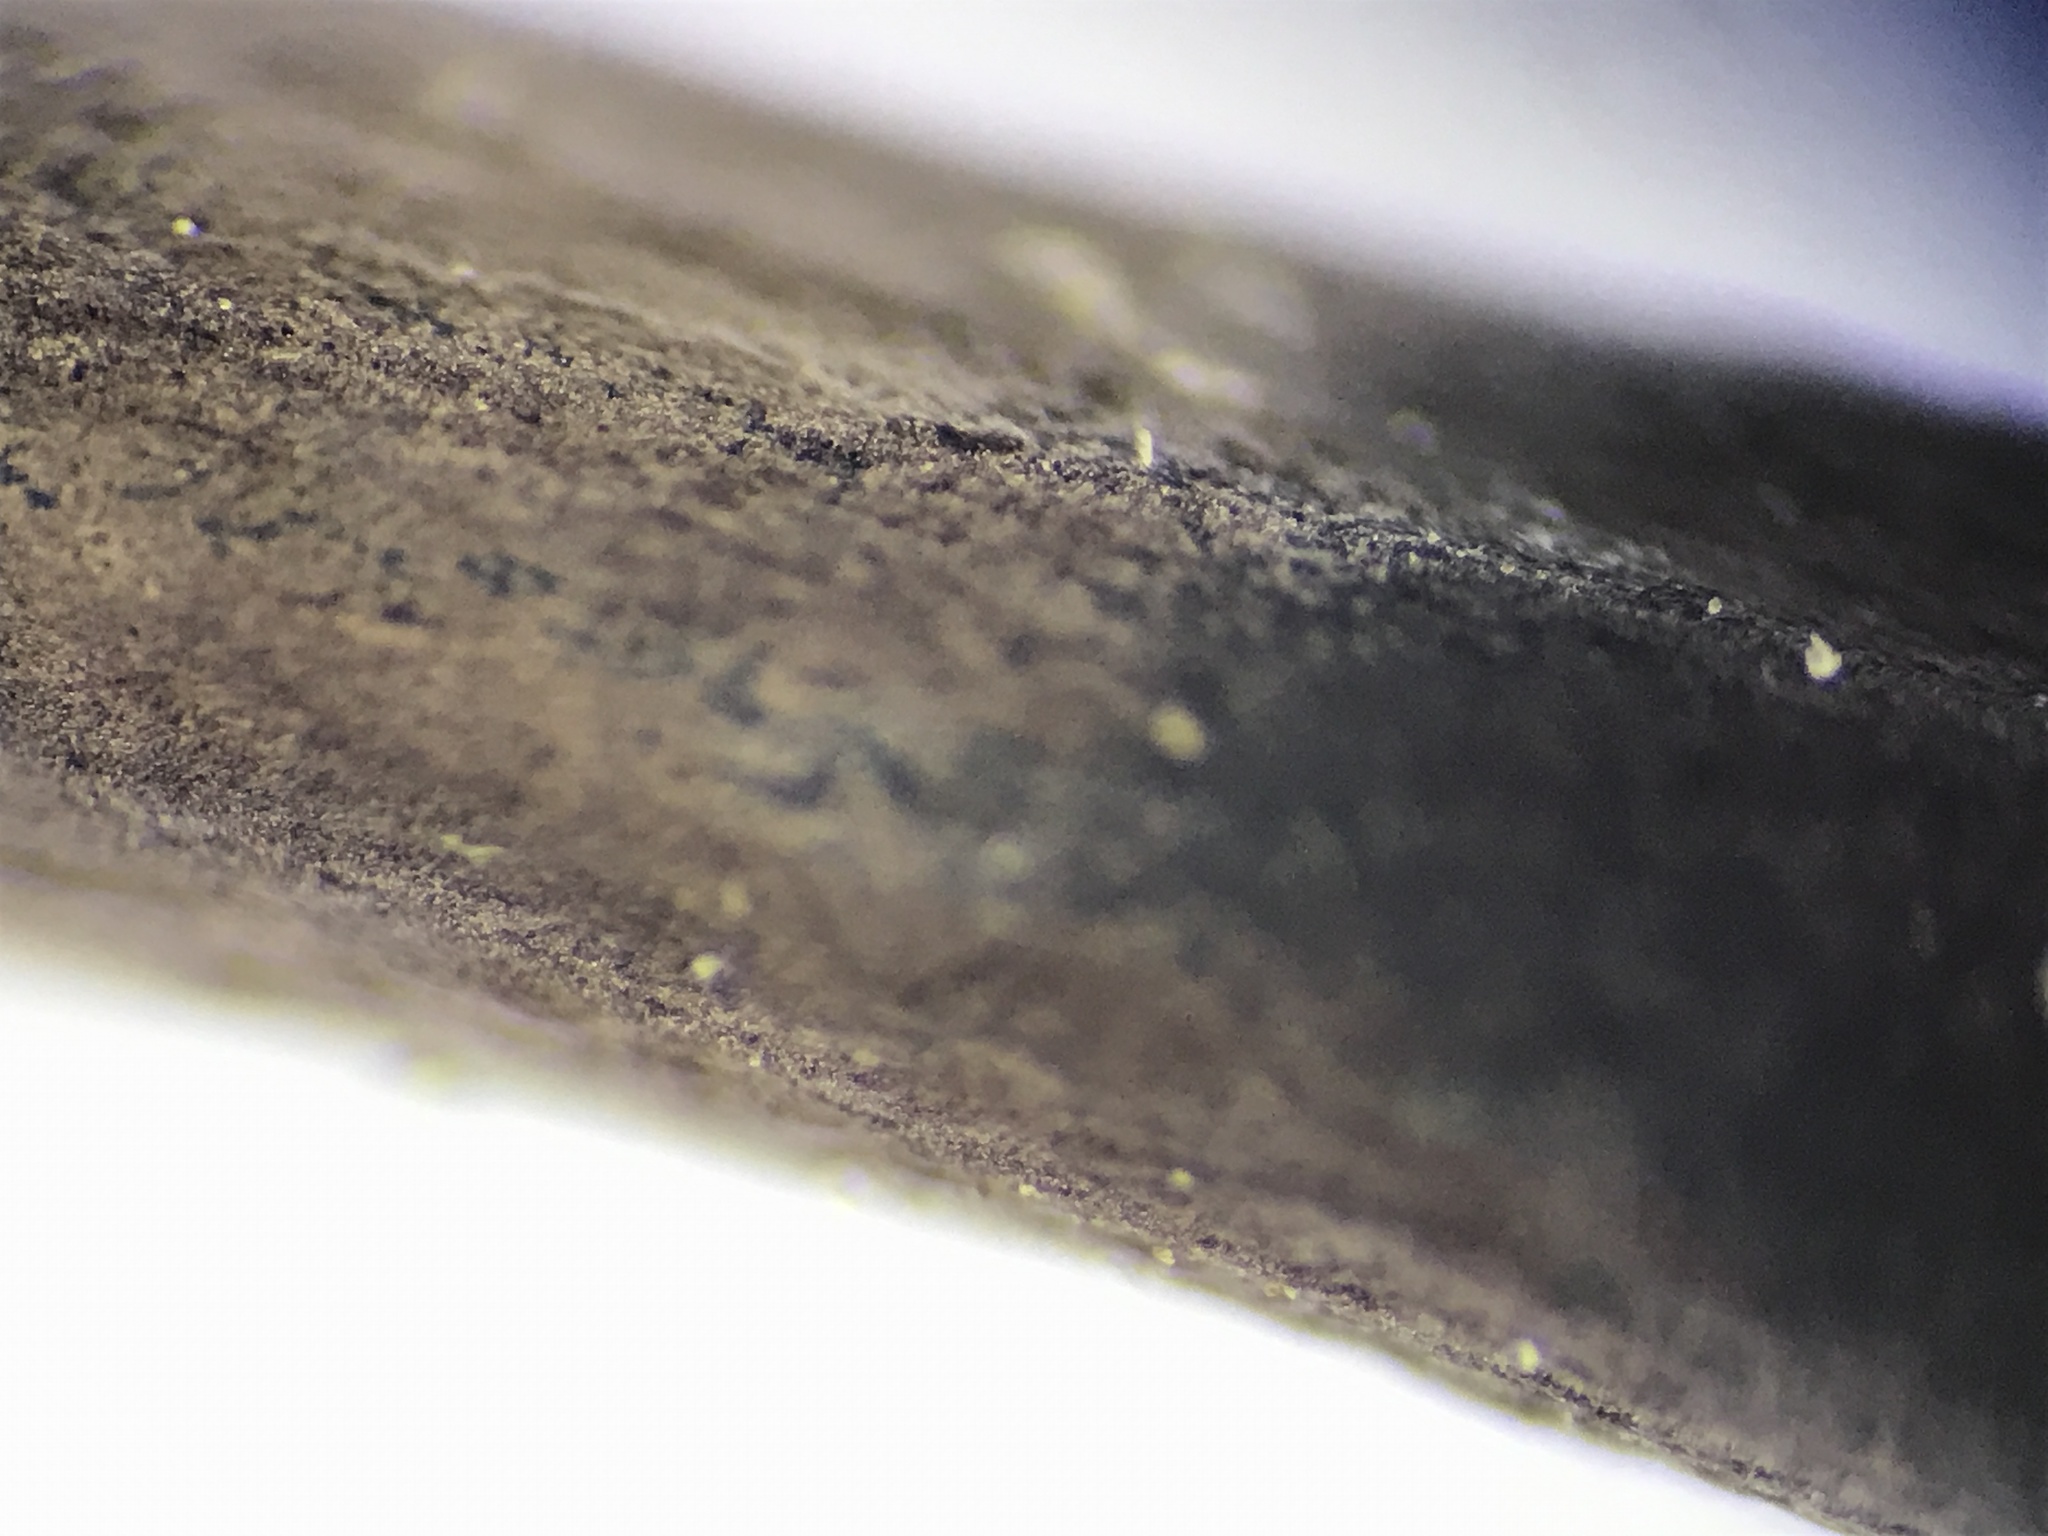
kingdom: Fungi
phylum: Ascomycota
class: Sordariomycetes
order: Hypocreales
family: Ophiocordycipitaceae
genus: Ophiocordyceps
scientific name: Ophiocordyceps ravenelii
